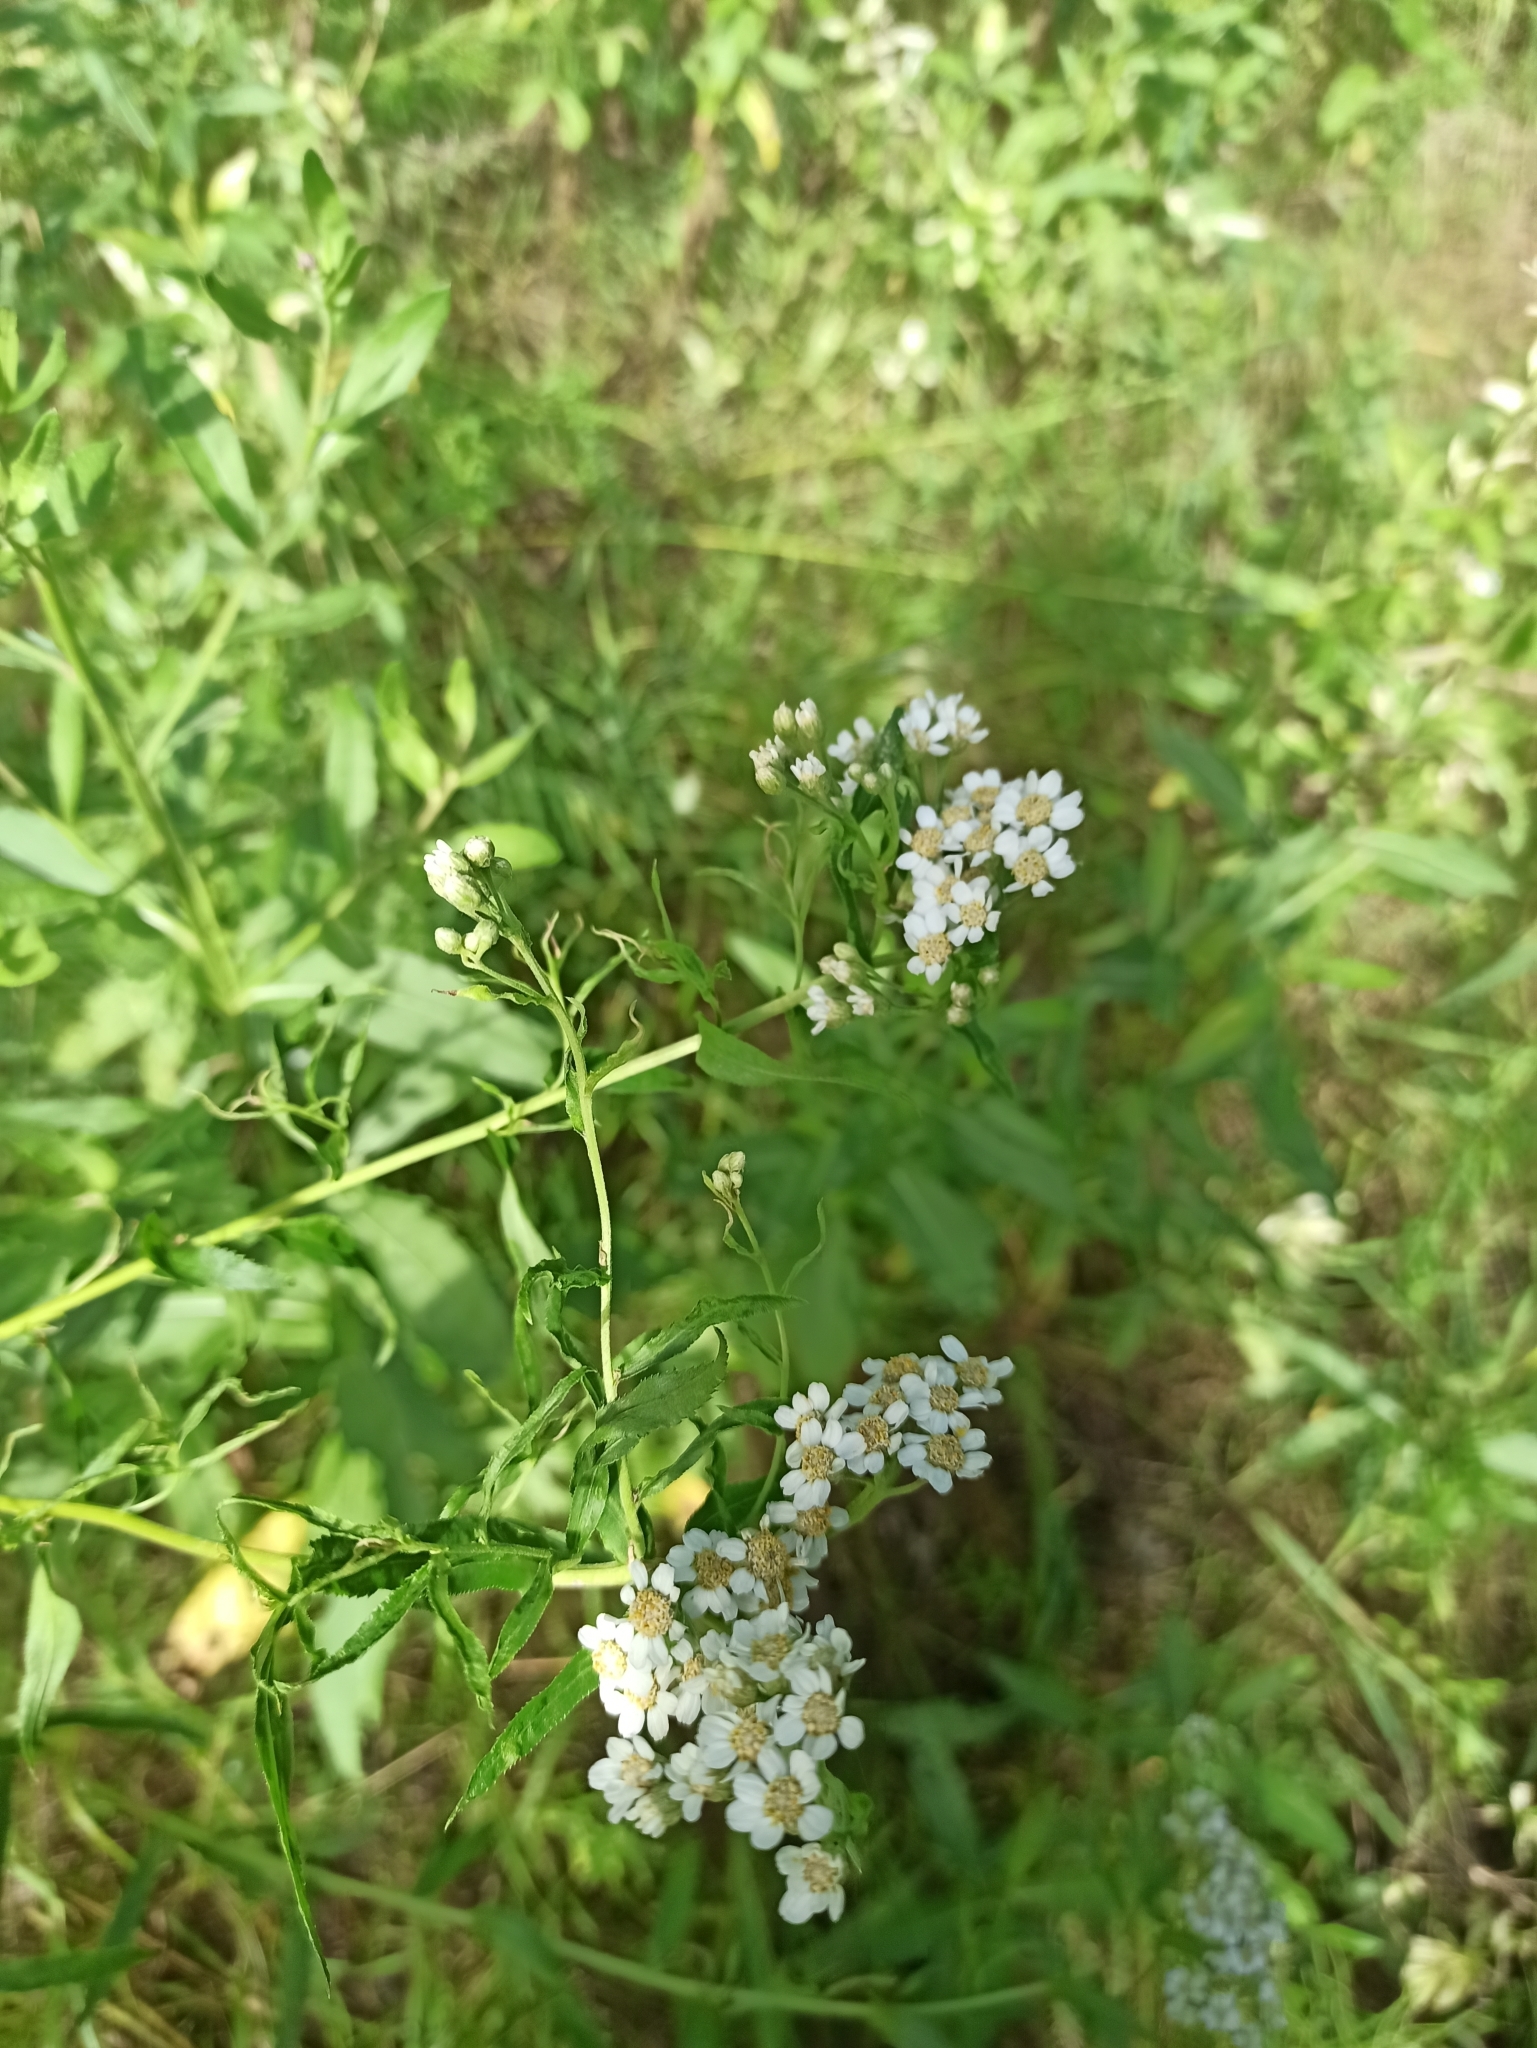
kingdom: Plantae
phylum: Tracheophyta
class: Magnoliopsida
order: Asterales
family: Asteraceae
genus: Achillea
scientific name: Achillea salicifolia
